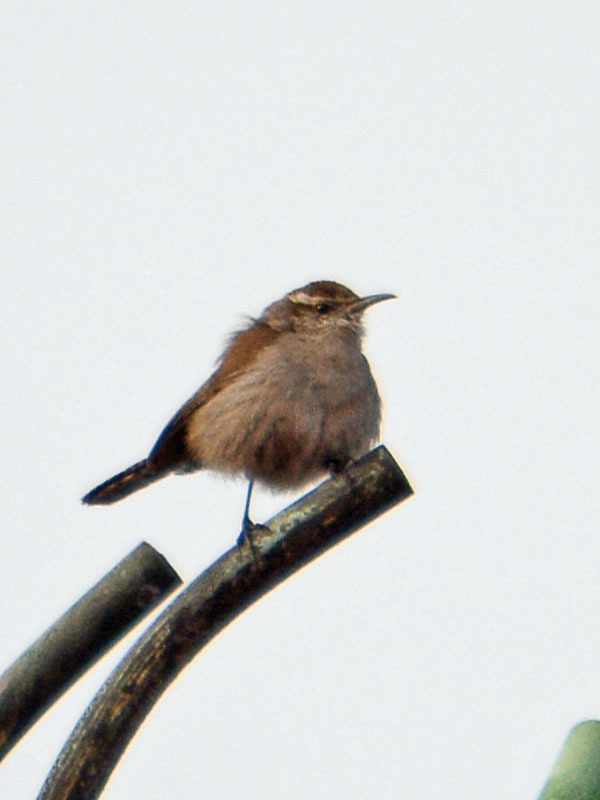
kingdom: Animalia
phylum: Chordata
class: Aves
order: Passeriformes
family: Troglodytidae
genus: Thryomanes
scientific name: Thryomanes bewickii
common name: Bewick's wren
